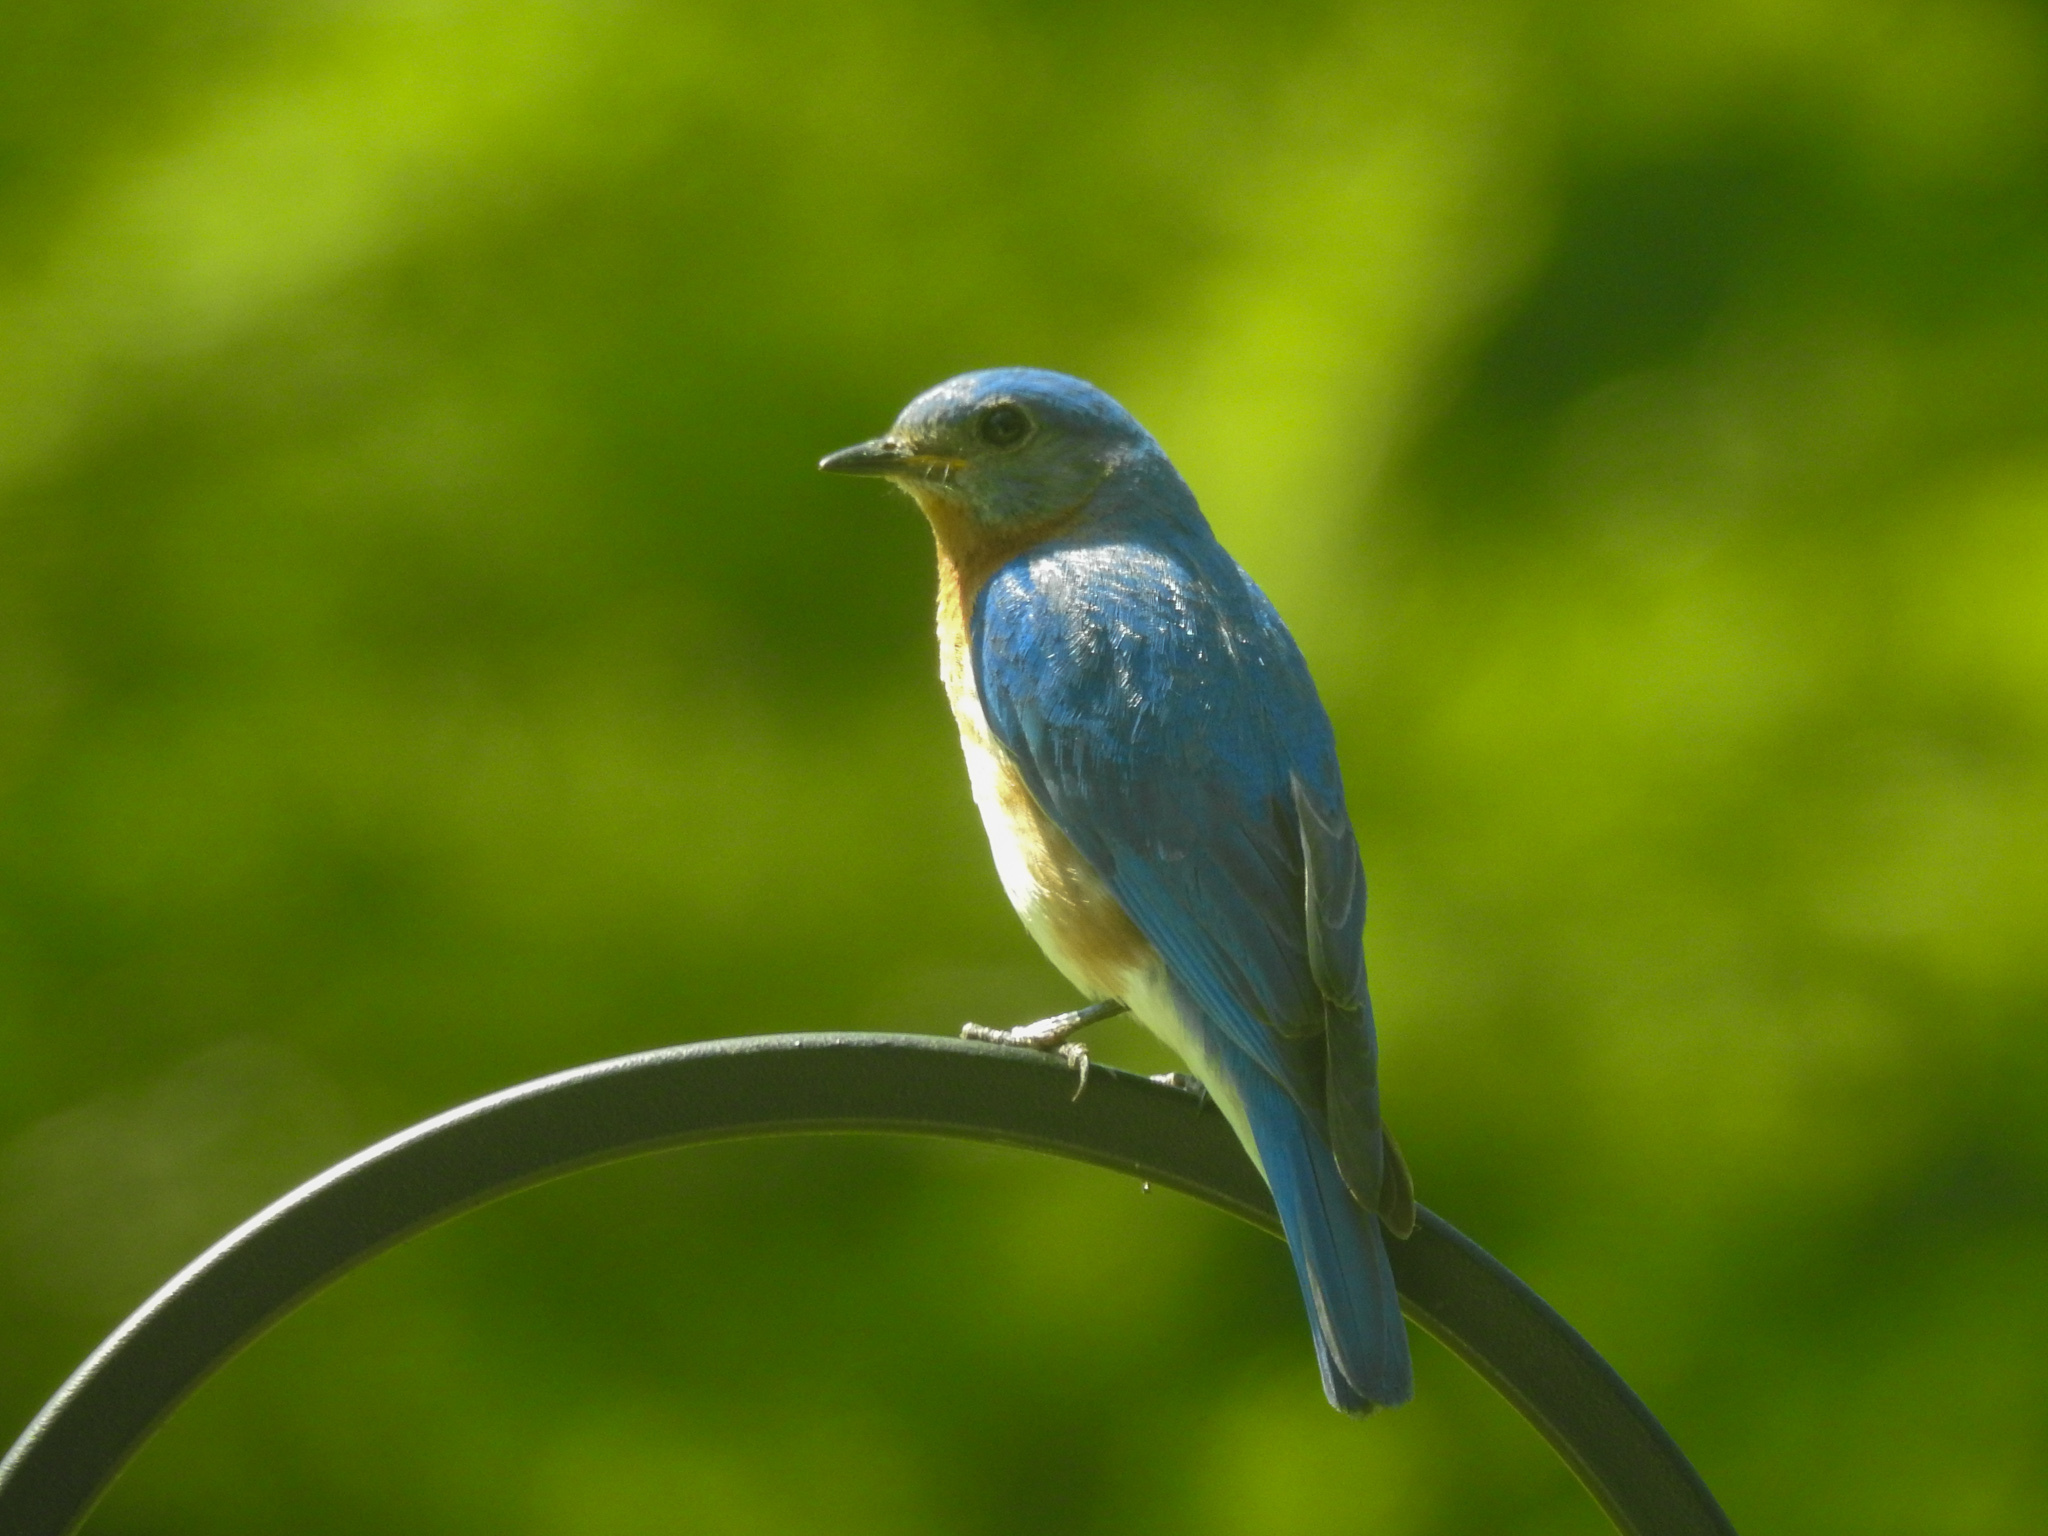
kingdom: Animalia
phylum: Chordata
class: Aves
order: Passeriformes
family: Turdidae
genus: Sialia
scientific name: Sialia sialis
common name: Eastern bluebird
